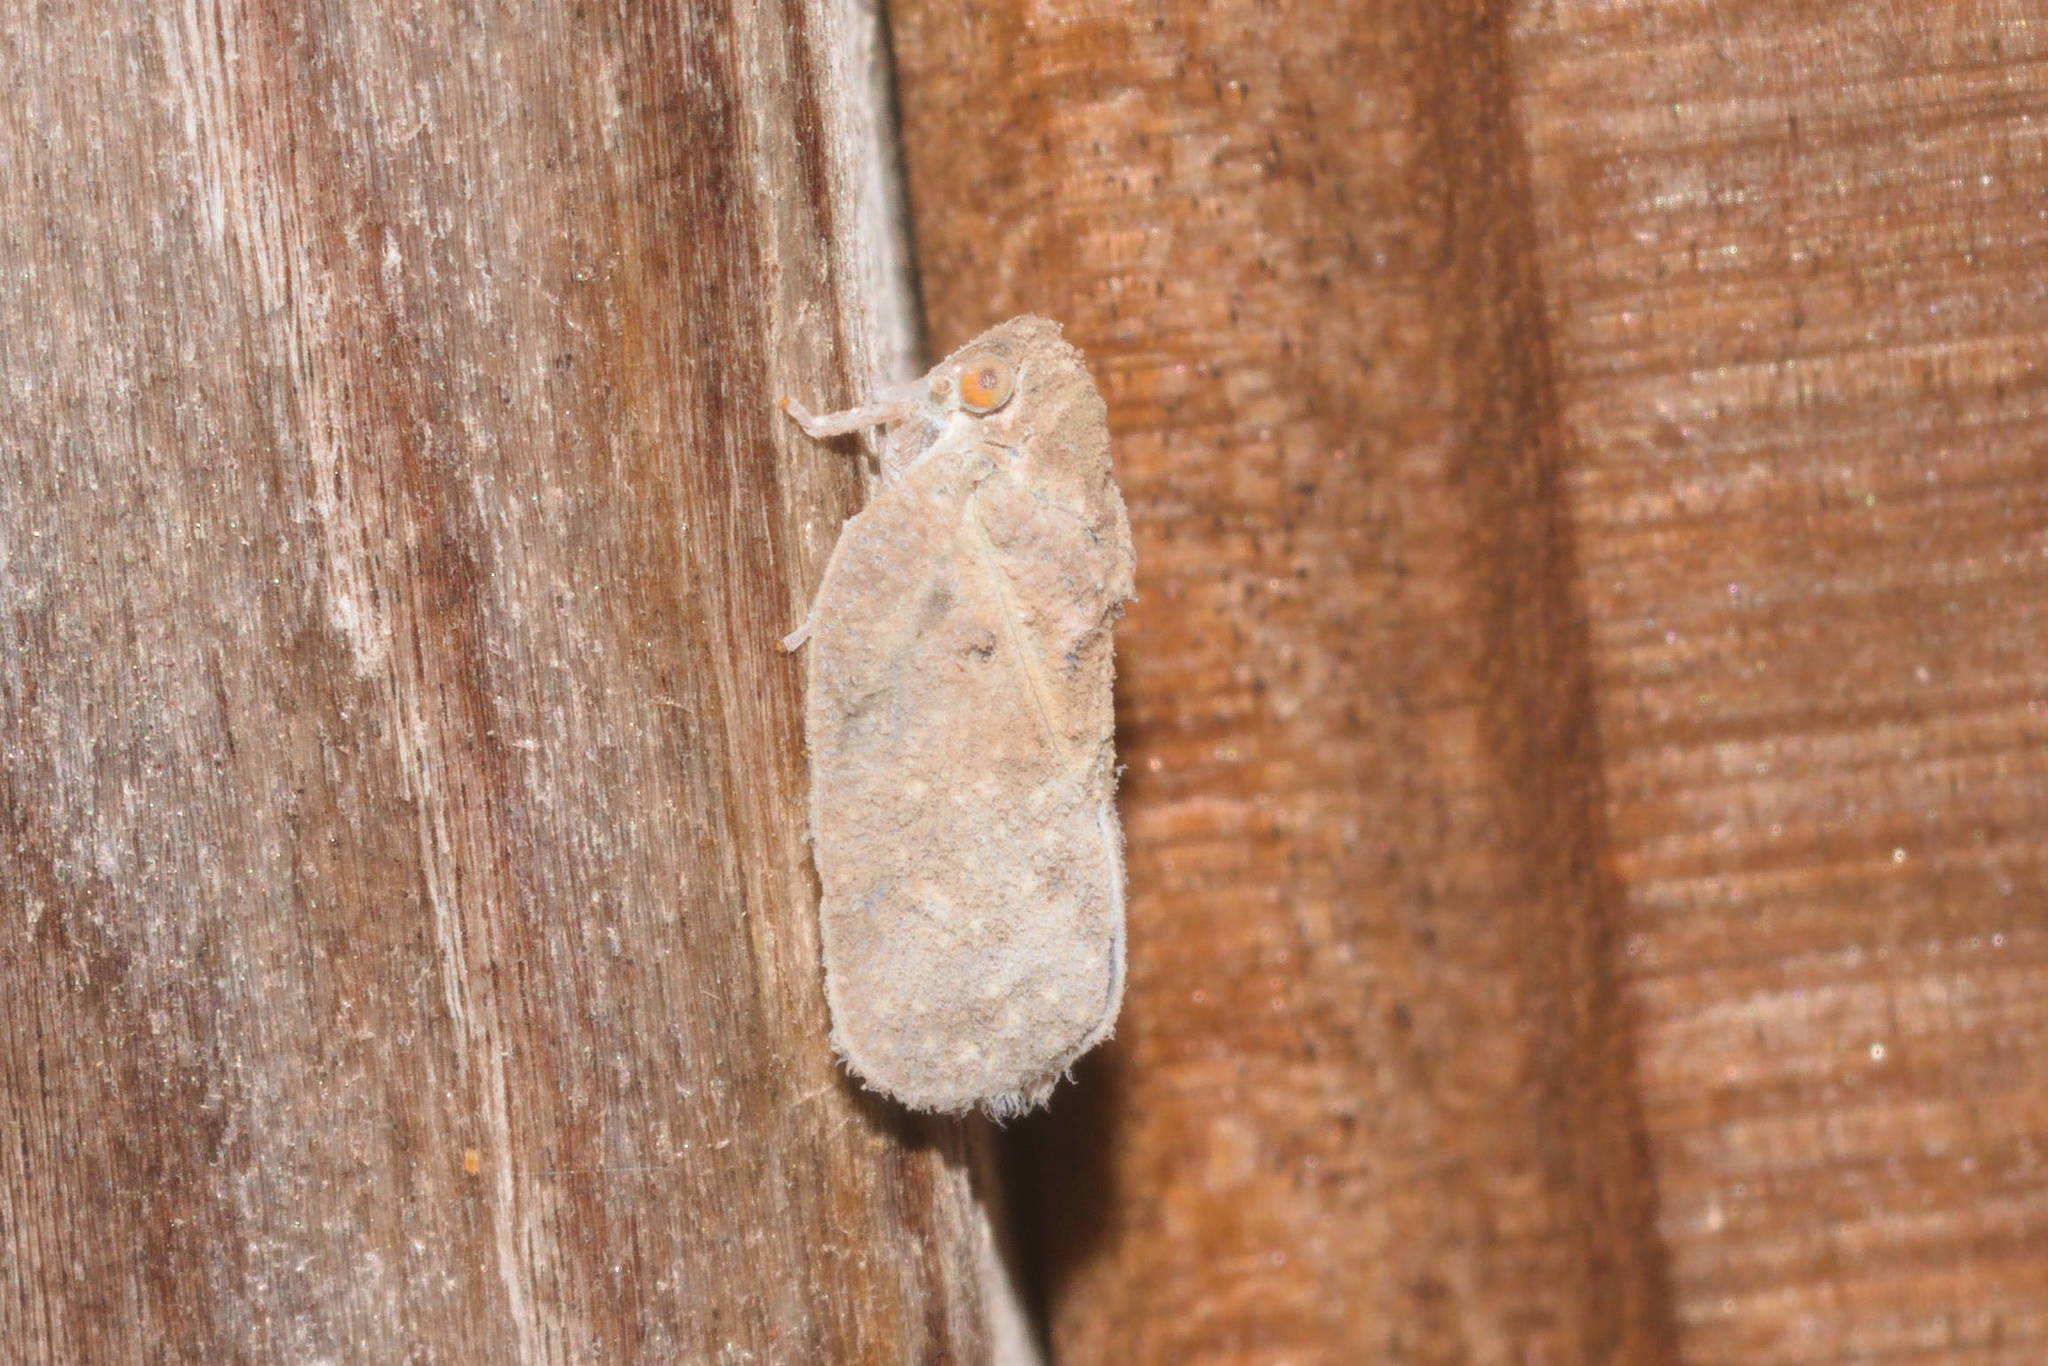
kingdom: Animalia
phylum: Arthropoda
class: Insecta
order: Hemiptera
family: Flatidae
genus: Melormenis
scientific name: Melormenis basalis
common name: Puerto rican planthopper
